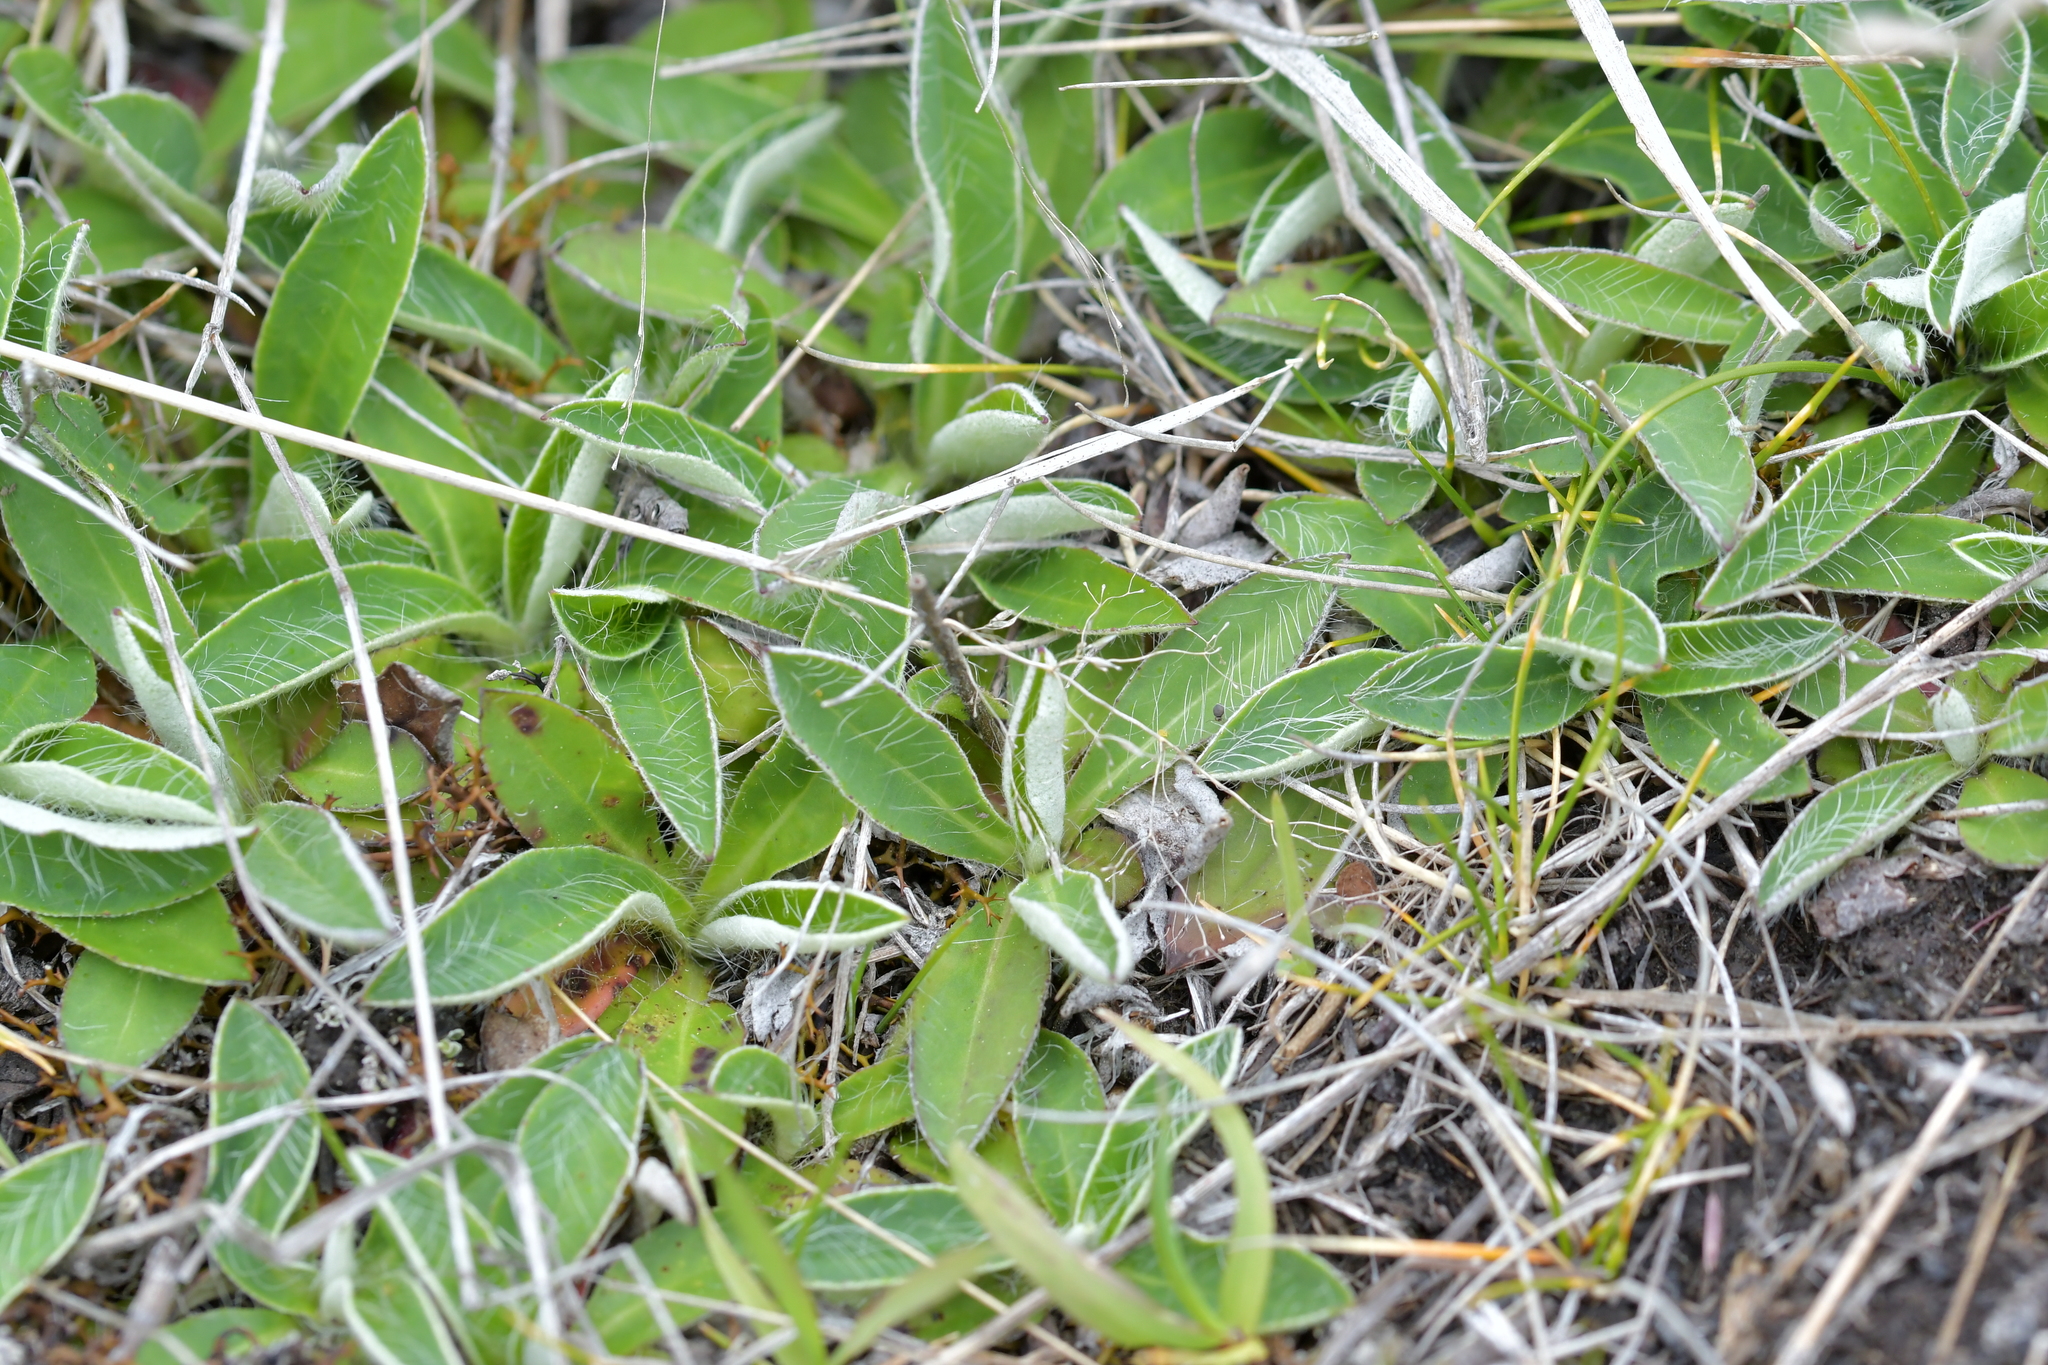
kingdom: Plantae
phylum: Tracheophyta
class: Magnoliopsida
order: Asterales
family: Asteraceae
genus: Pilosella
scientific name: Pilosella officinarum
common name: Mouse-ear hawkweed
